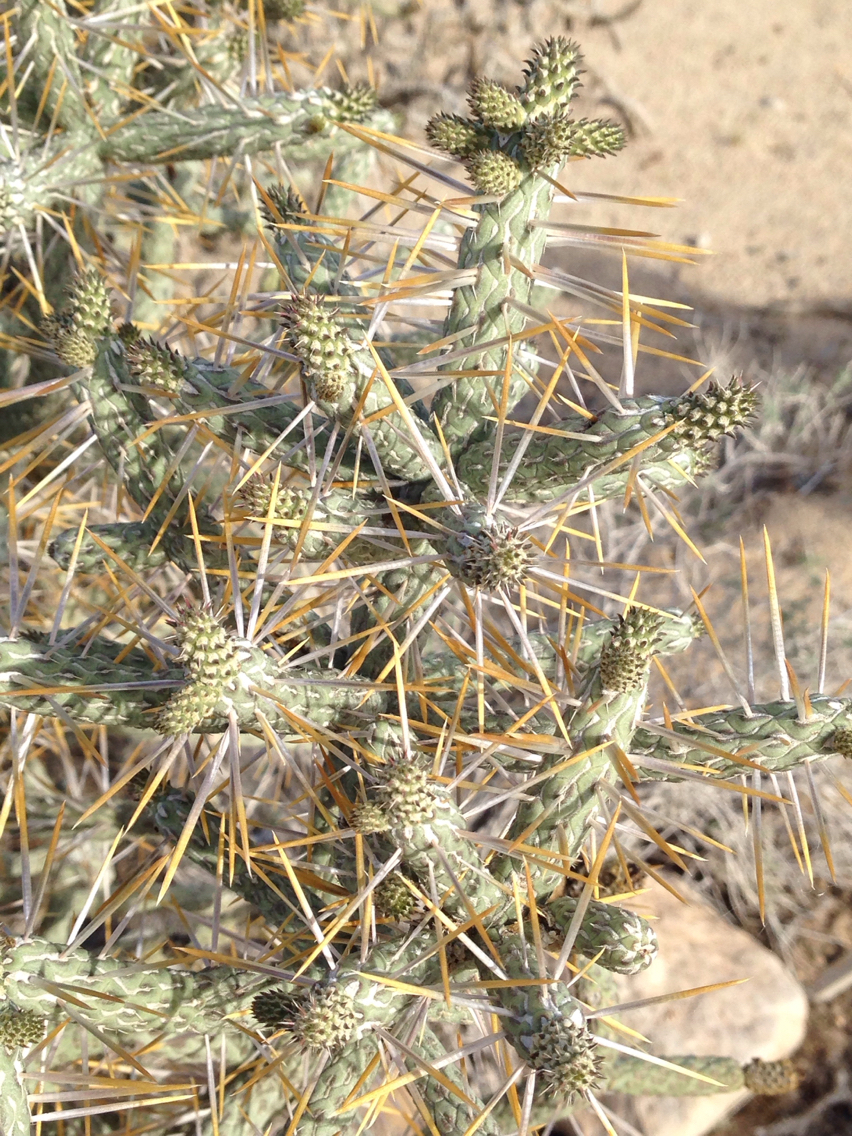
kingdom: Plantae
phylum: Tracheophyta
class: Magnoliopsida
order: Caryophyllales
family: Cactaceae
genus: Cylindropuntia
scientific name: Cylindropuntia ramosissima
